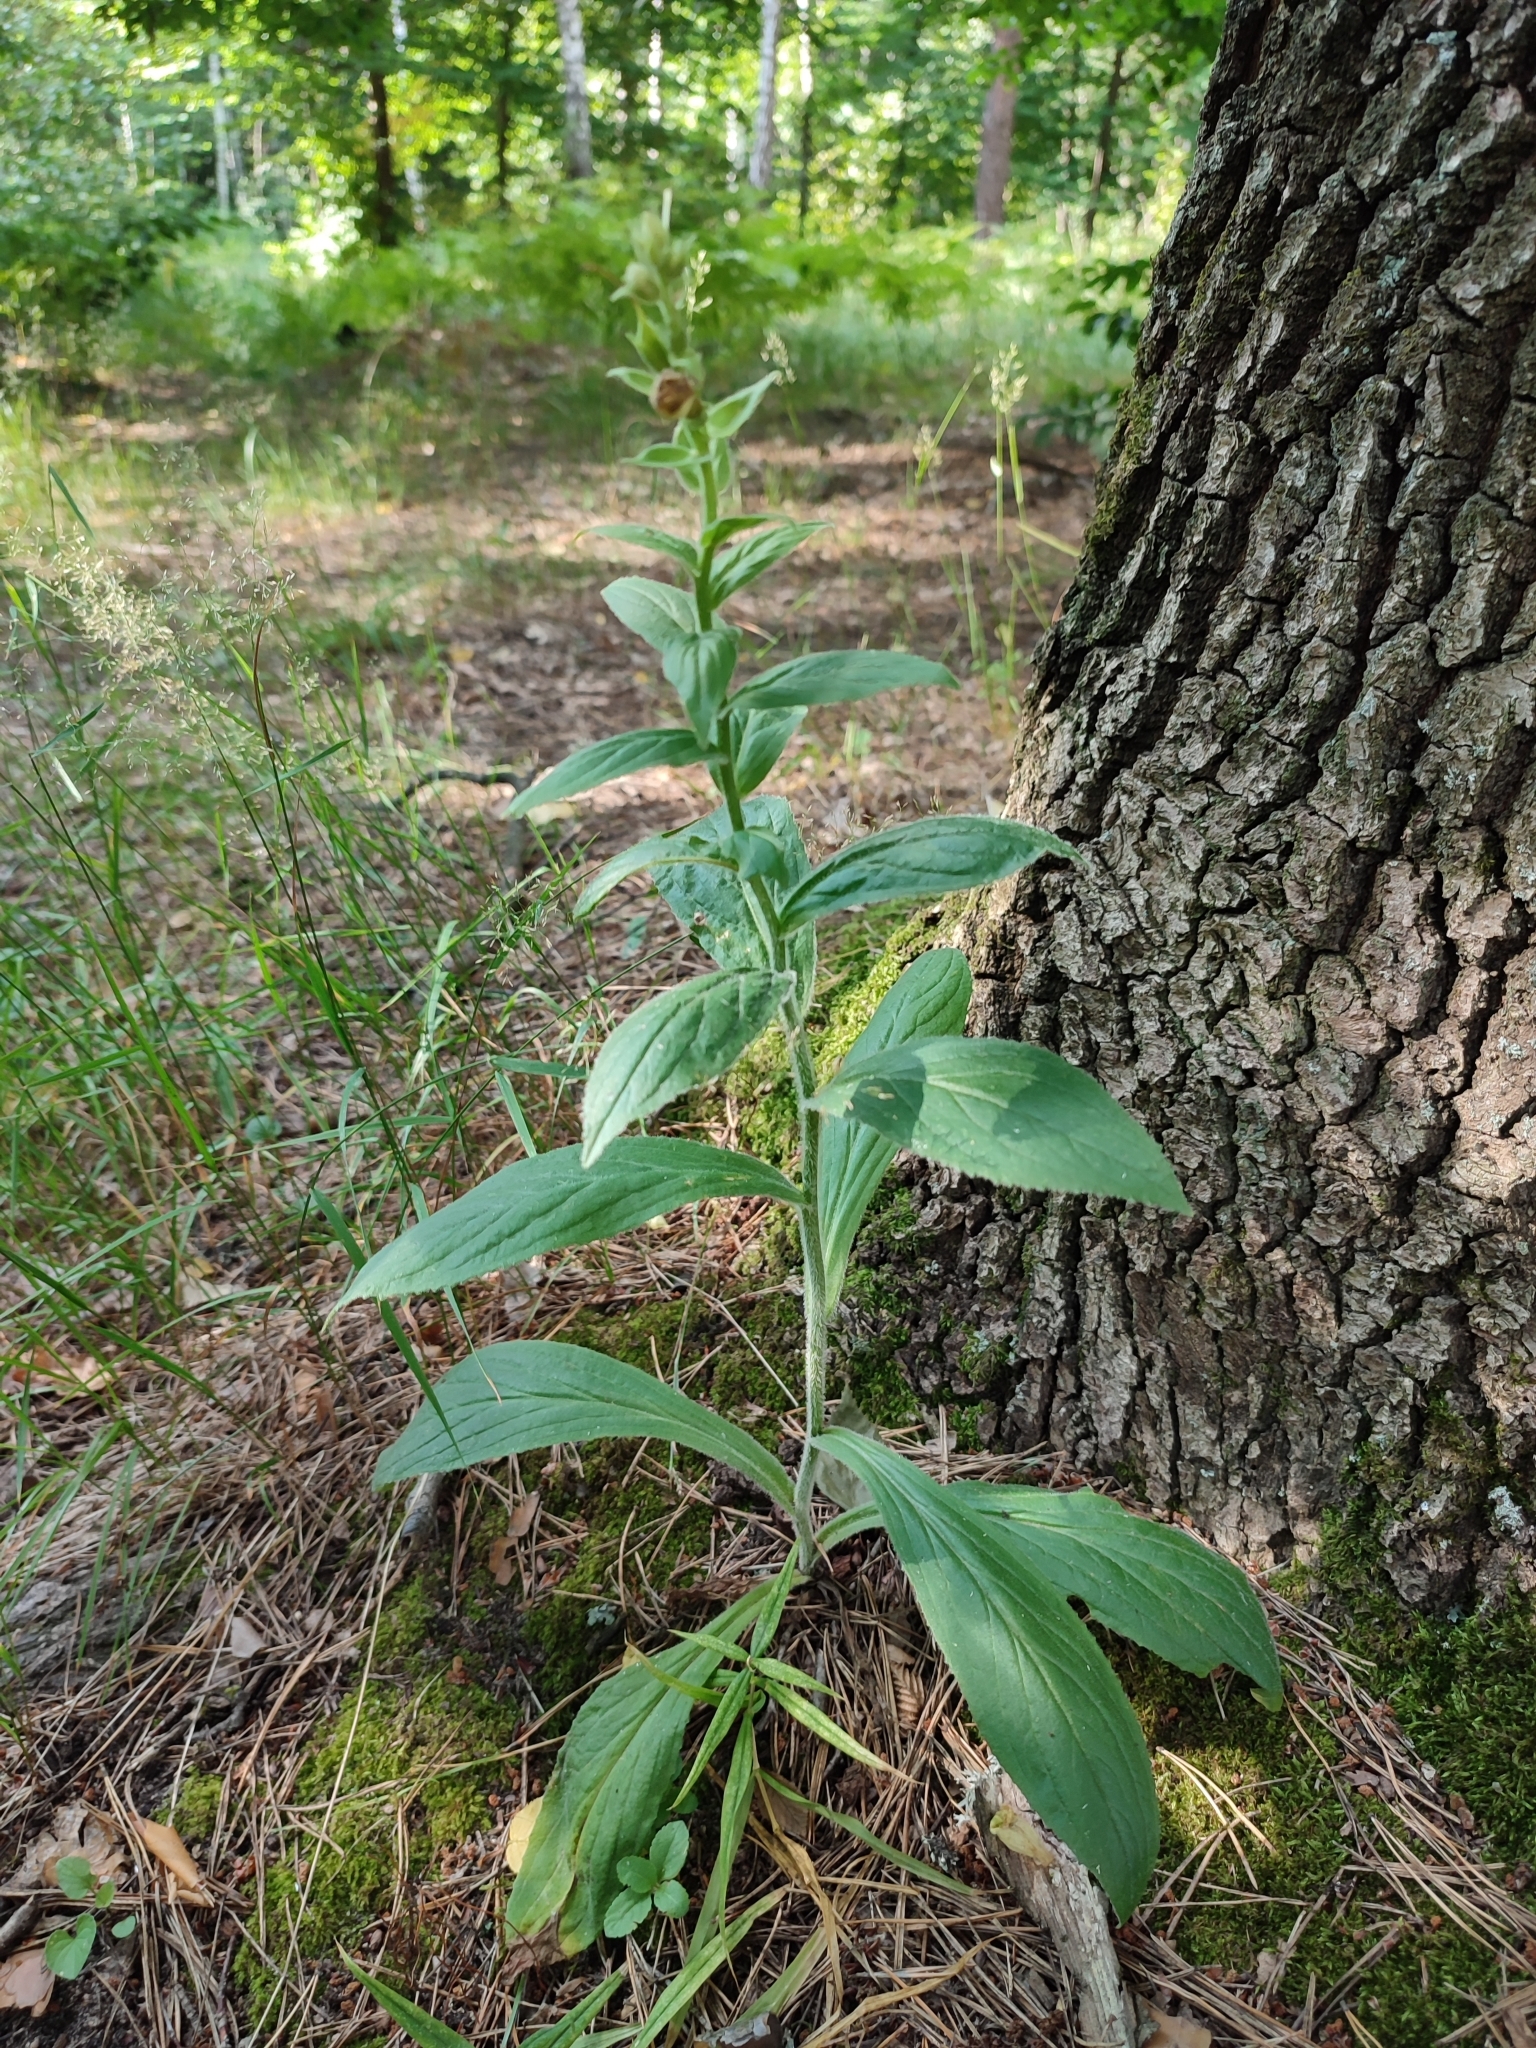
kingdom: Plantae
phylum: Tracheophyta
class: Magnoliopsida
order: Lamiales
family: Plantaginaceae
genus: Digitalis
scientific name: Digitalis grandiflora
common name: Yellow foxglove
